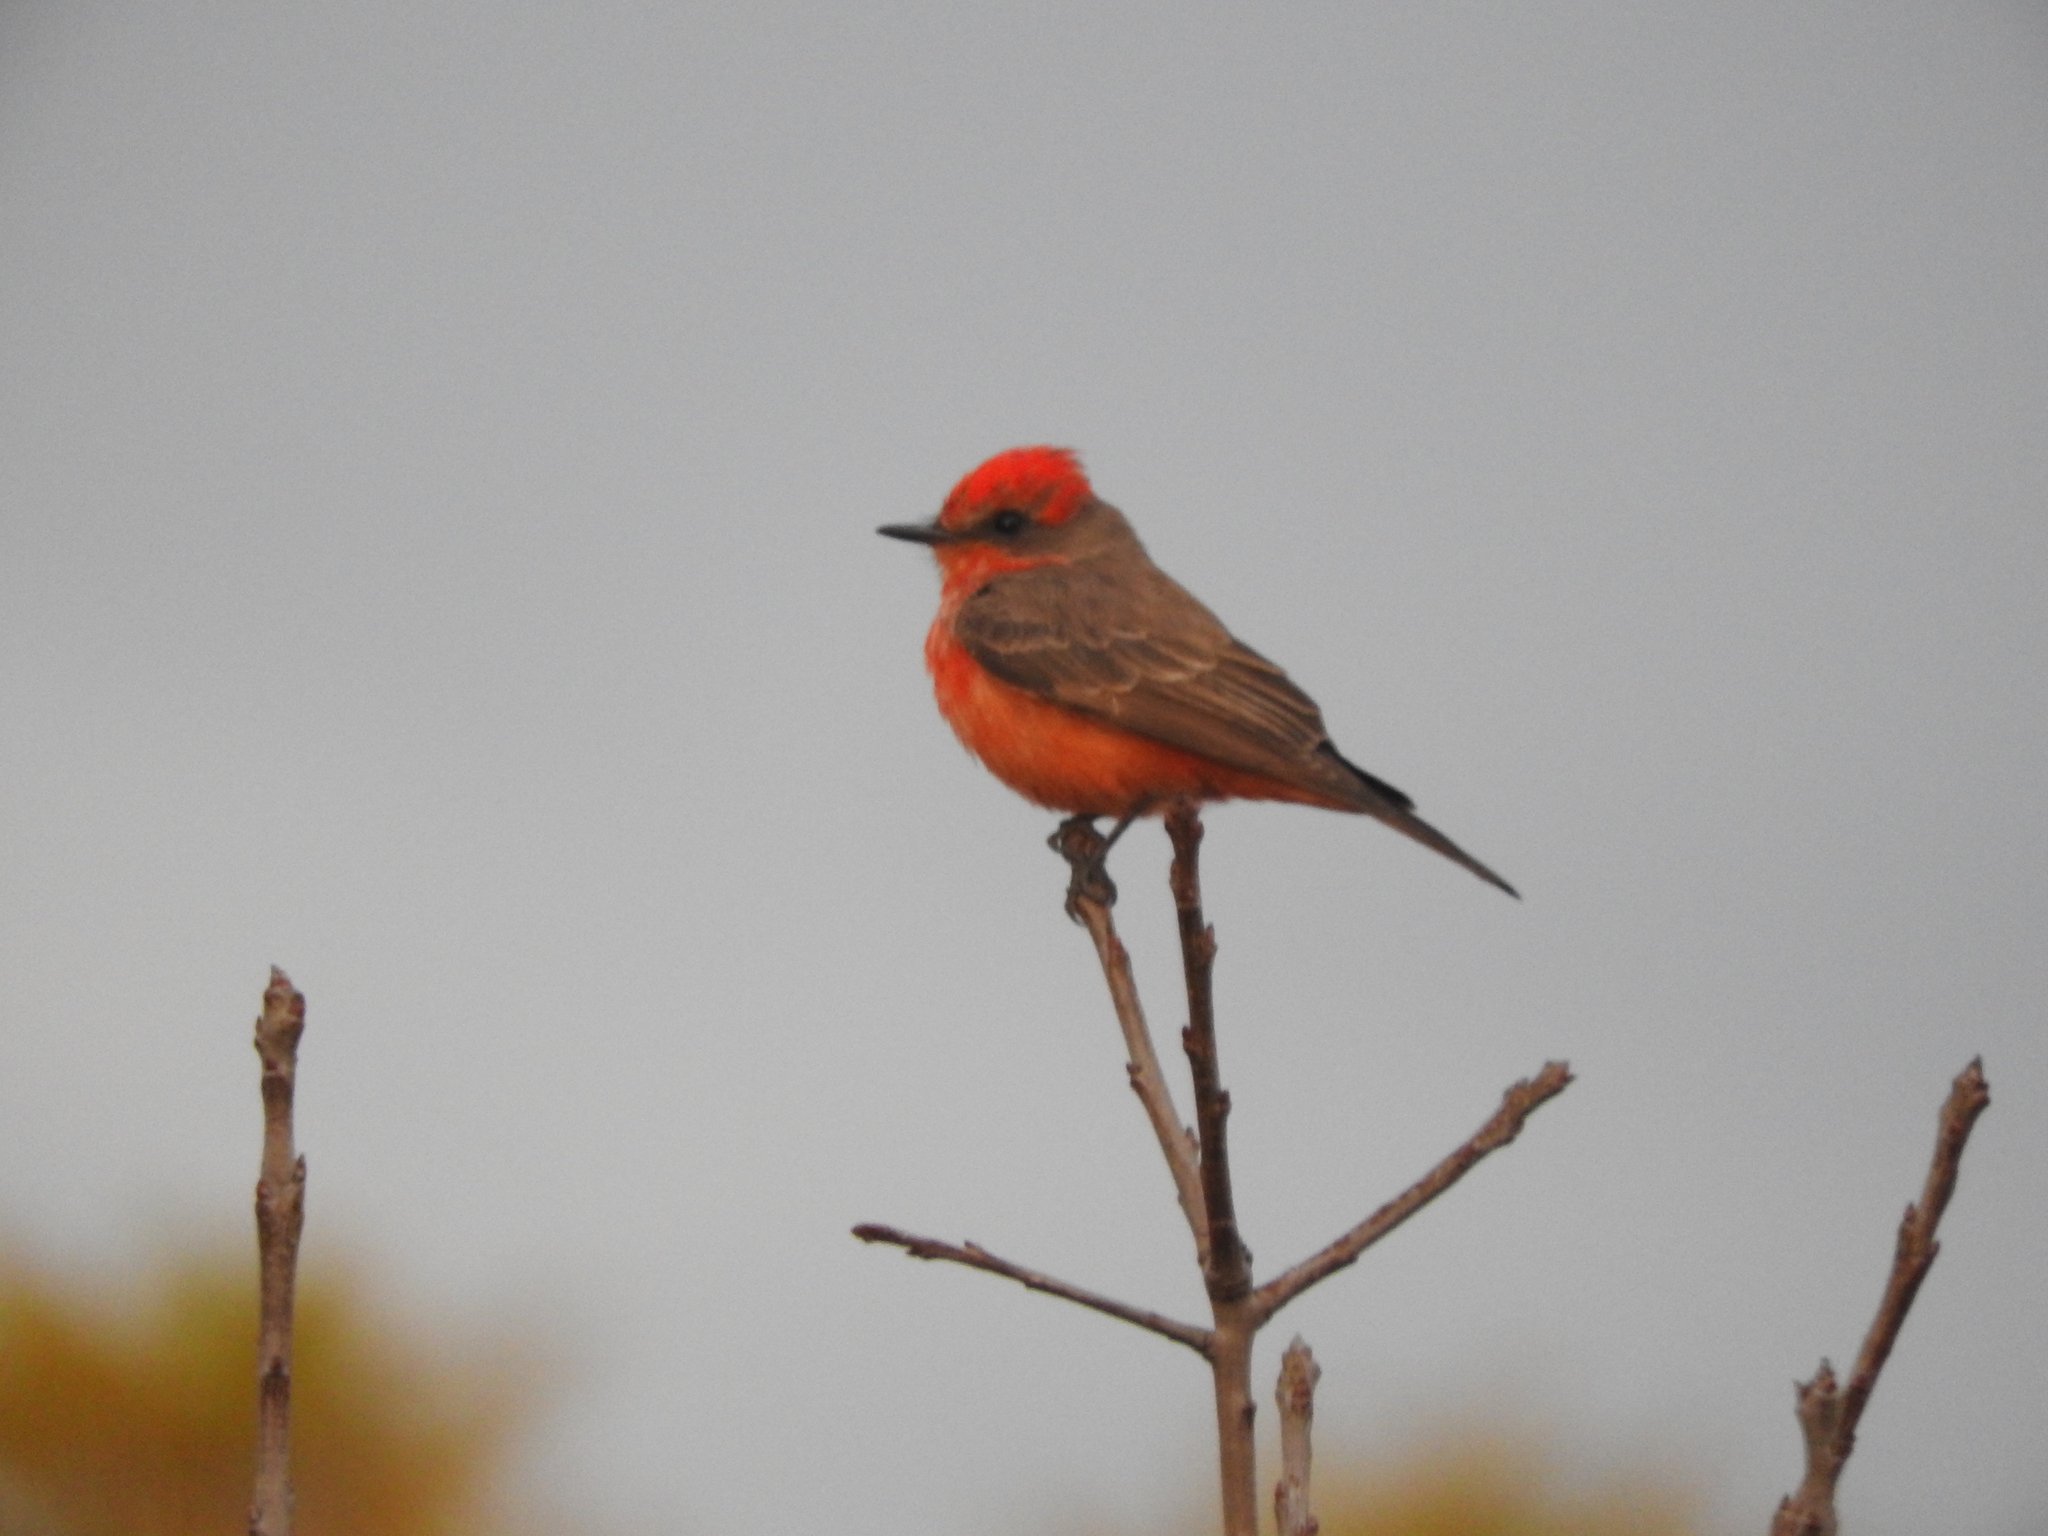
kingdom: Animalia
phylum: Chordata
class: Aves
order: Passeriformes
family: Tyrannidae
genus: Pyrocephalus
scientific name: Pyrocephalus rubinus
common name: Vermilion flycatcher
